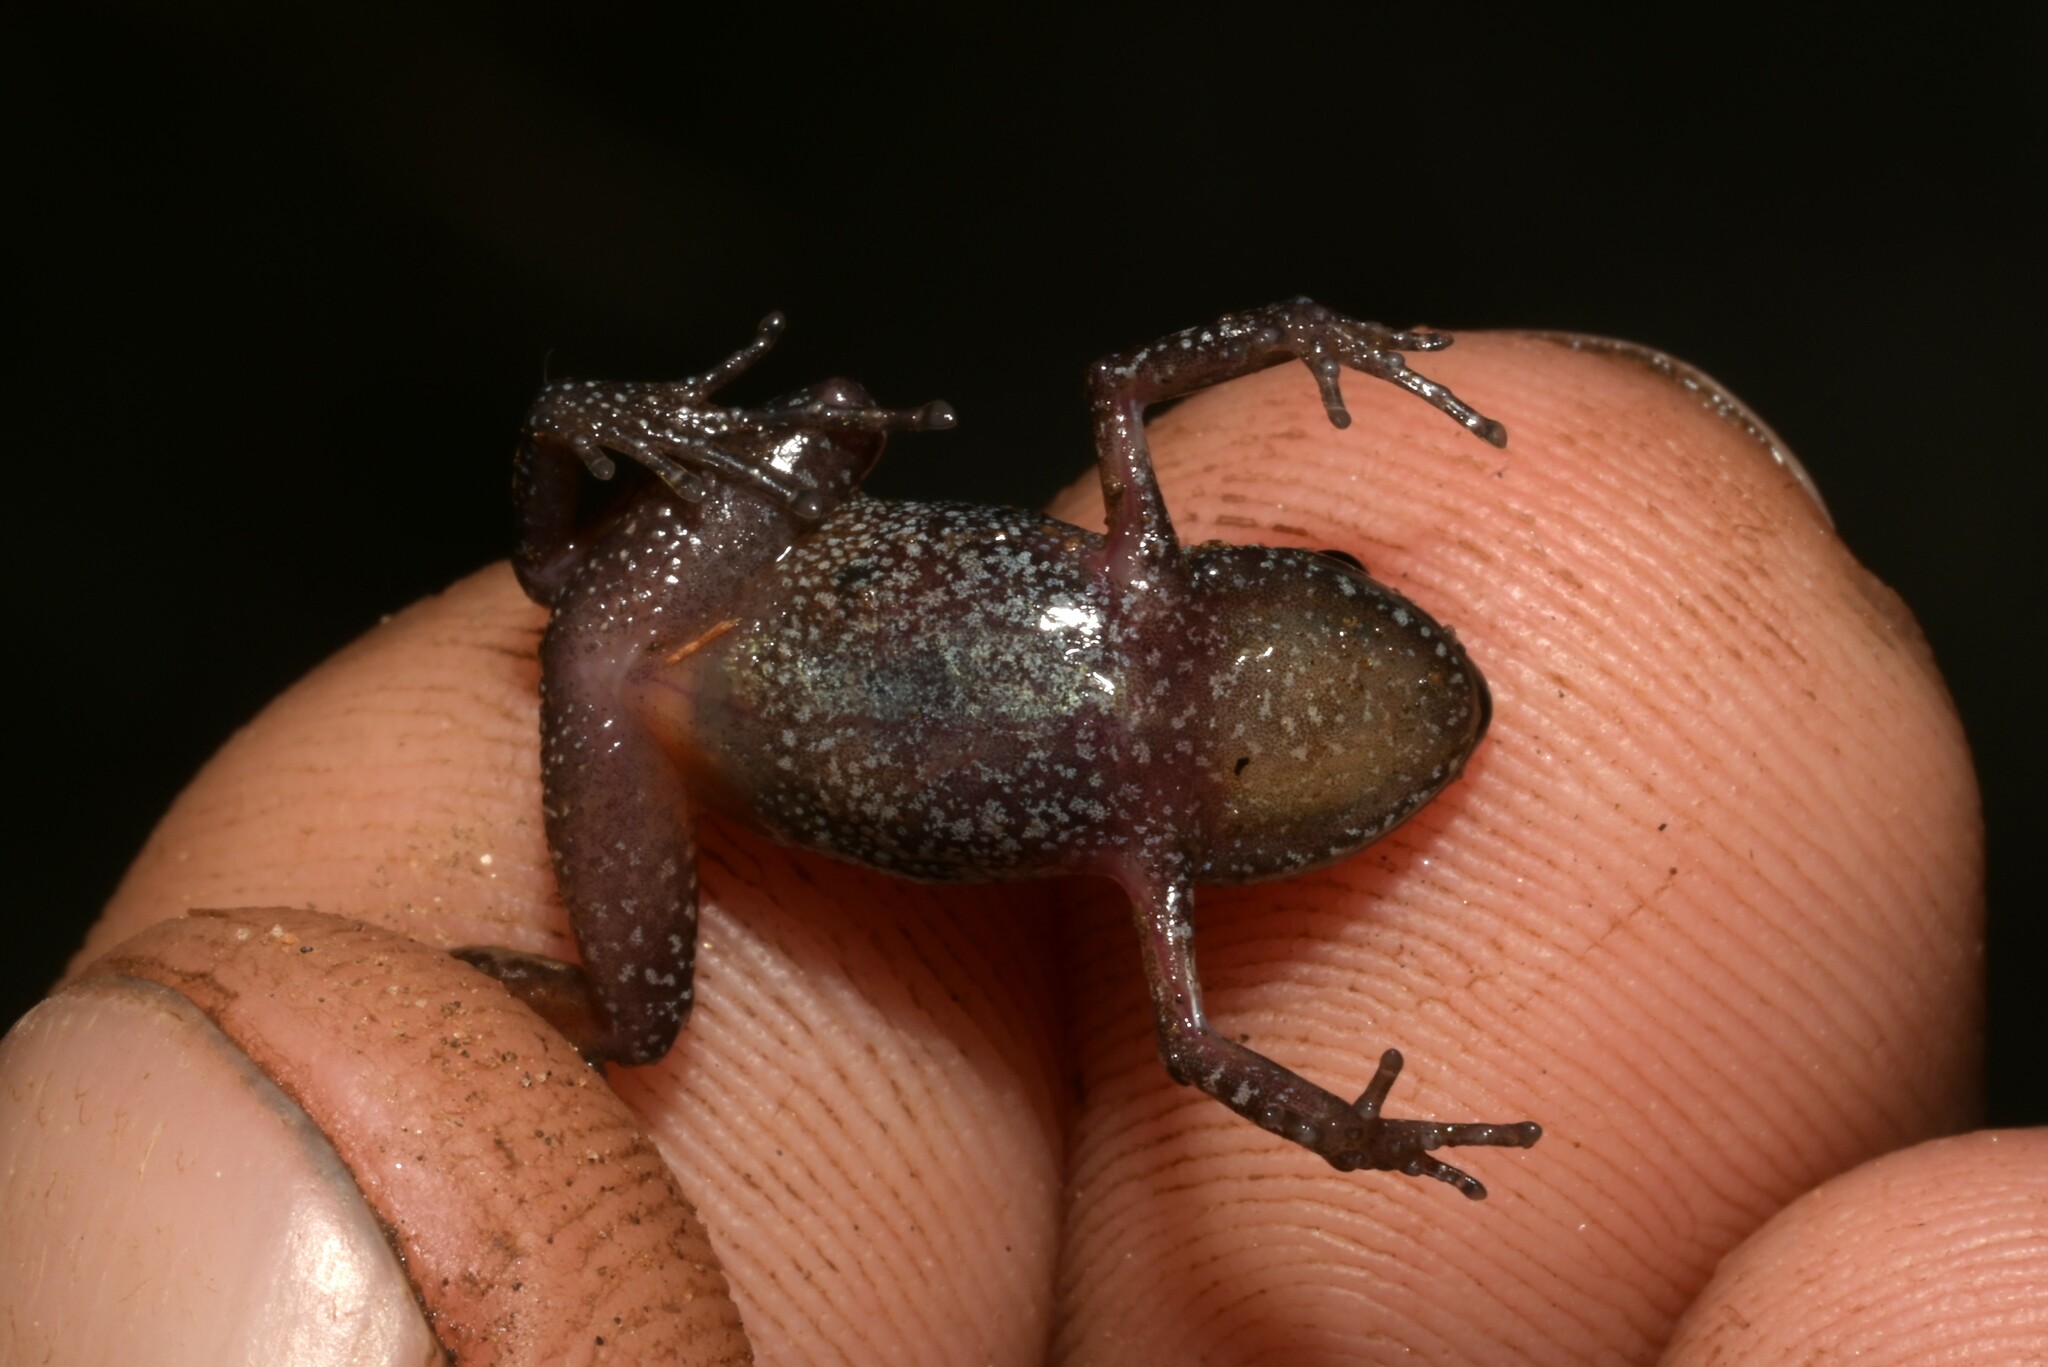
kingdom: Animalia
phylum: Chordata
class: Amphibia
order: Anura
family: Arthroleptidae
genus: Arthroleptis
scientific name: Arthroleptis xenodactyloides
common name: Chirinda screeching frog
